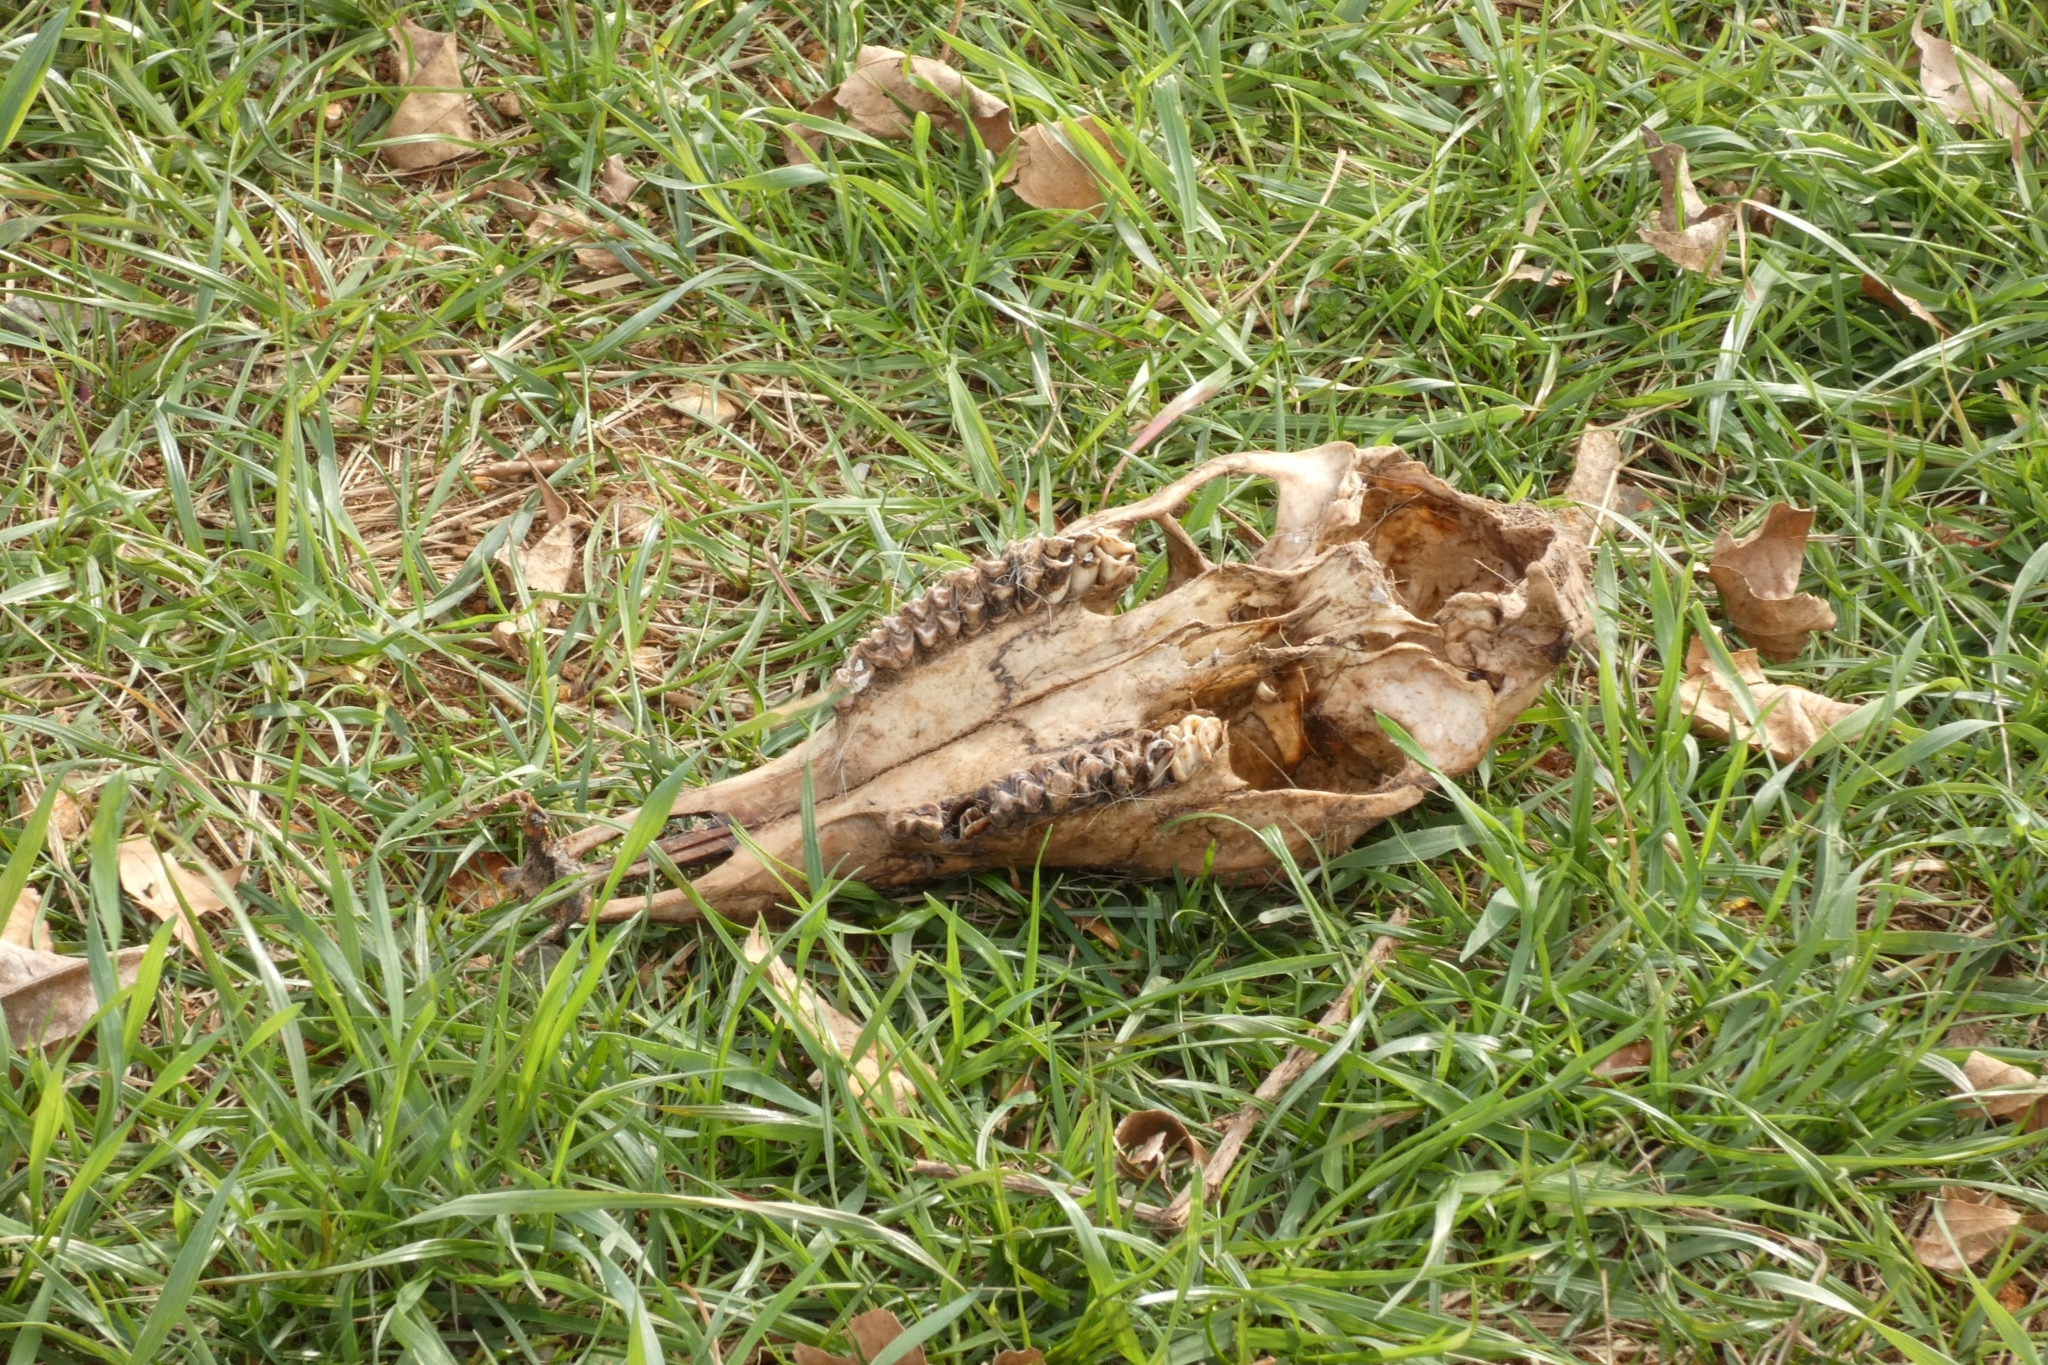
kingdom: Animalia
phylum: Chordata
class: Mammalia
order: Artiodactyla
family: Cervidae
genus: Odocoileus
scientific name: Odocoileus virginianus
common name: White-tailed deer
